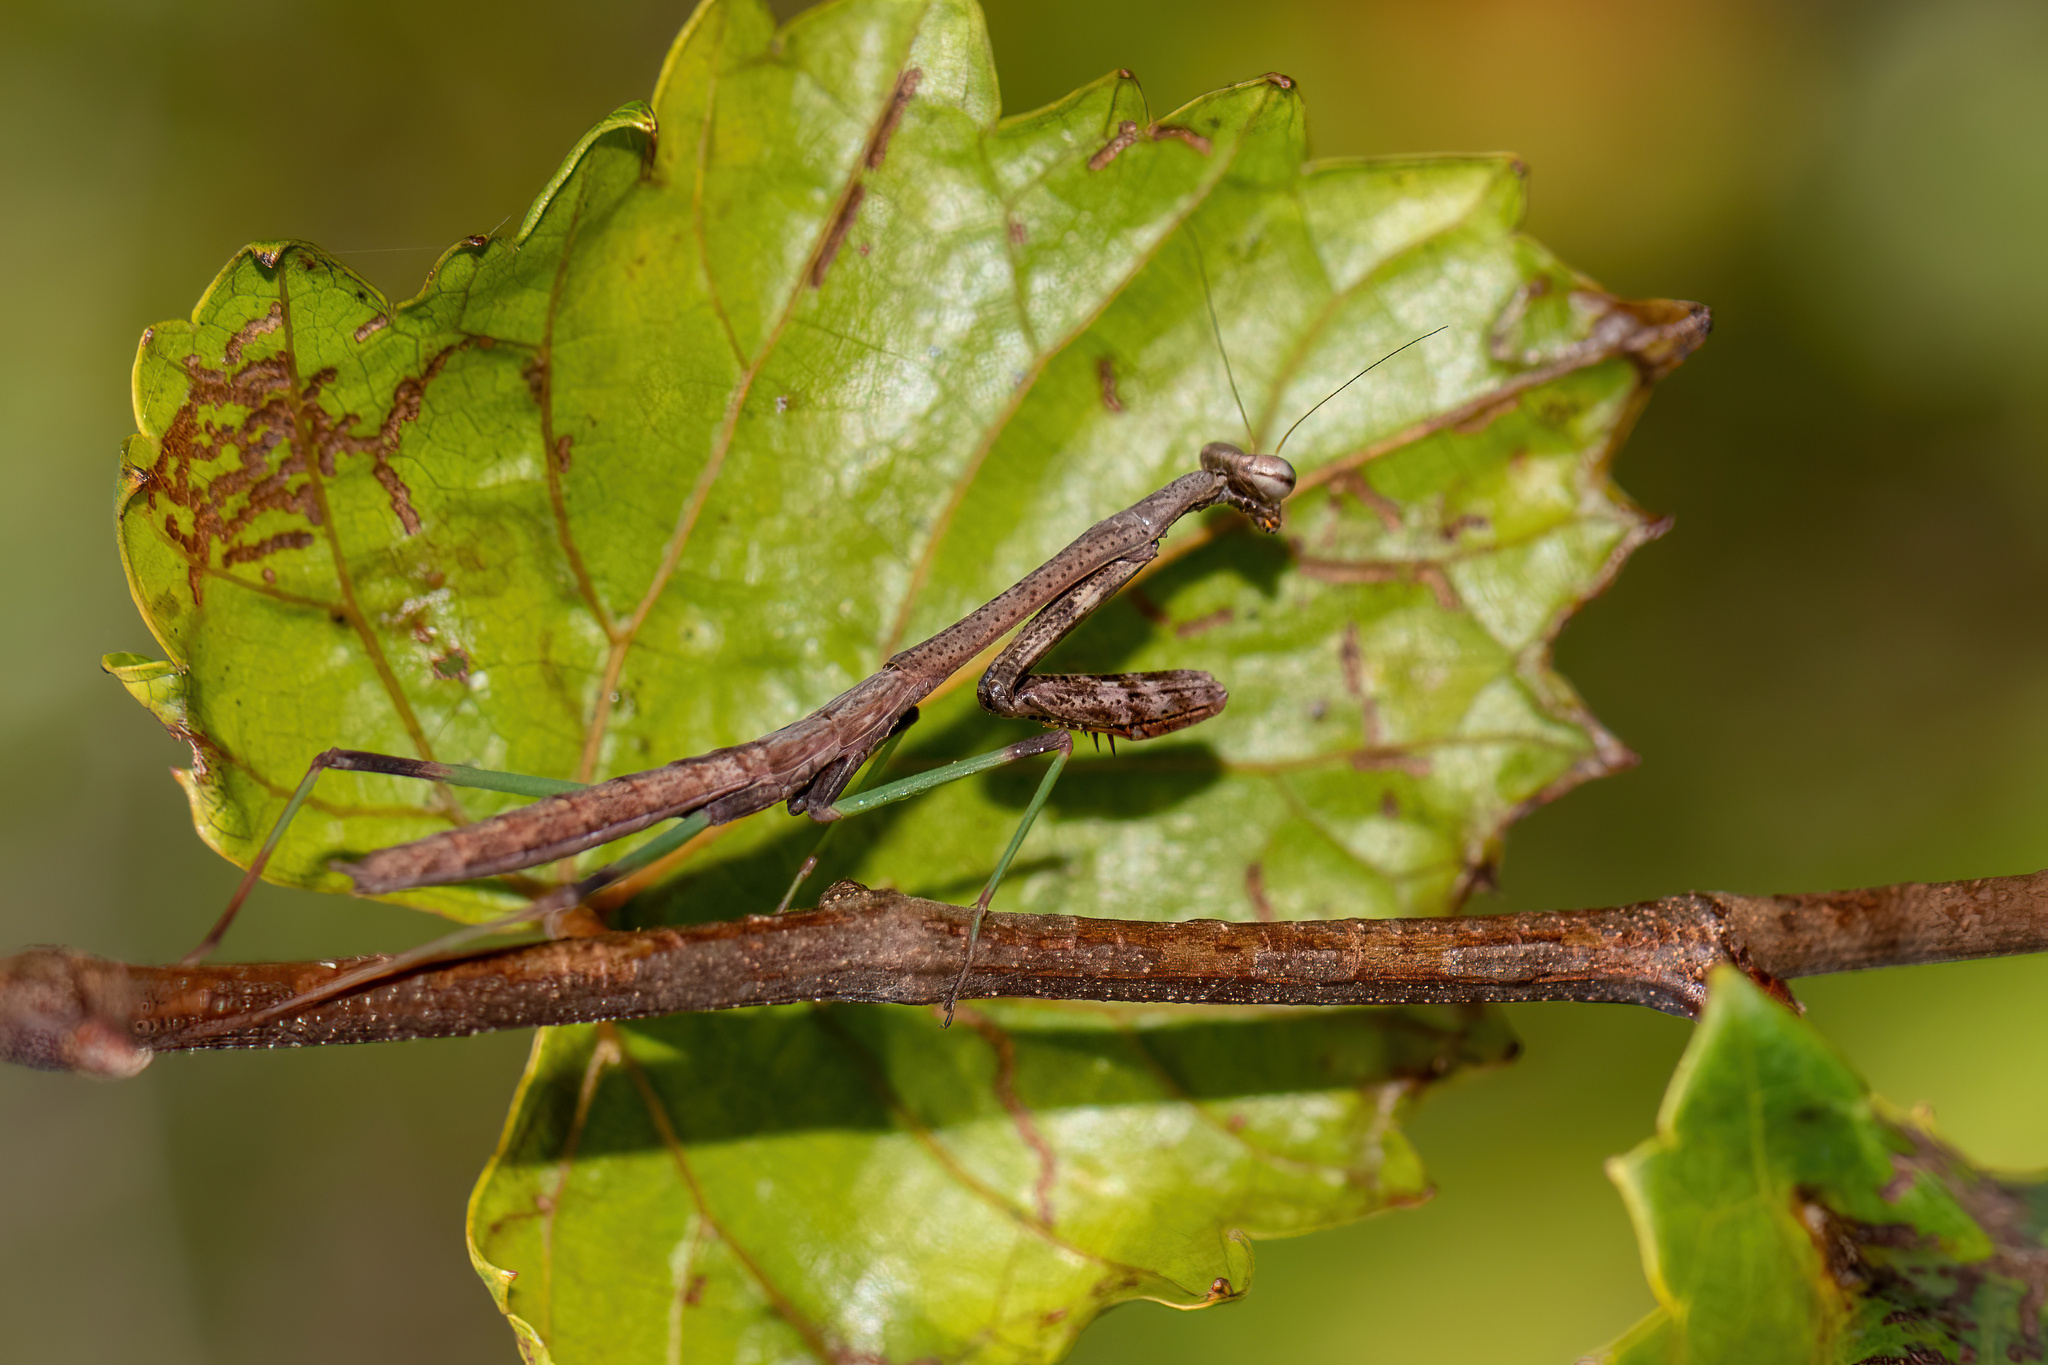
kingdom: Animalia
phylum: Arthropoda
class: Insecta
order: Mantodea
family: Mantidae
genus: Stagmomantis
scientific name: Stagmomantis floridensis
